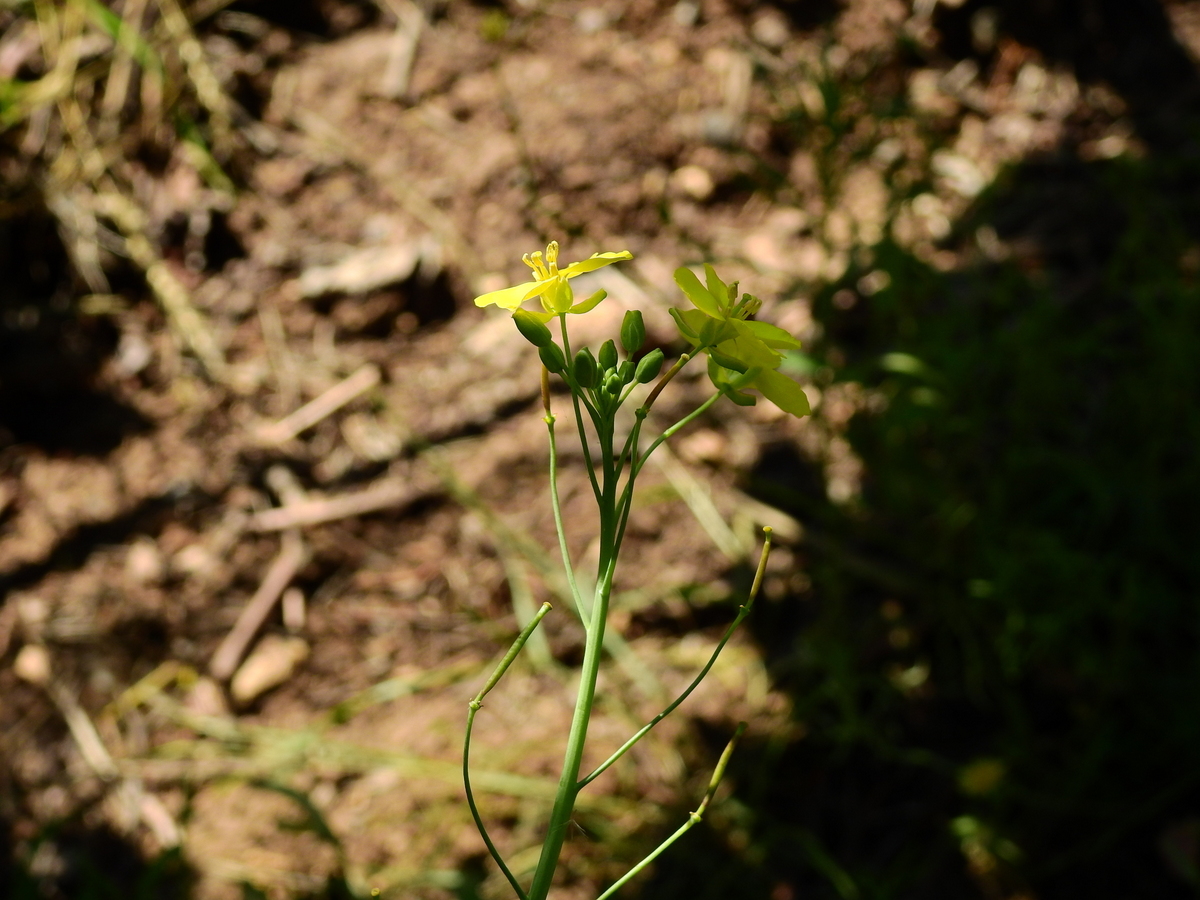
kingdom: Plantae
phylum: Tracheophyta
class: Magnoliopsida
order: Brassicales
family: Brassicaceae
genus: Diplotaxis
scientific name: Diplotaxis tenuifolia
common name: Perennial wall-rocket
